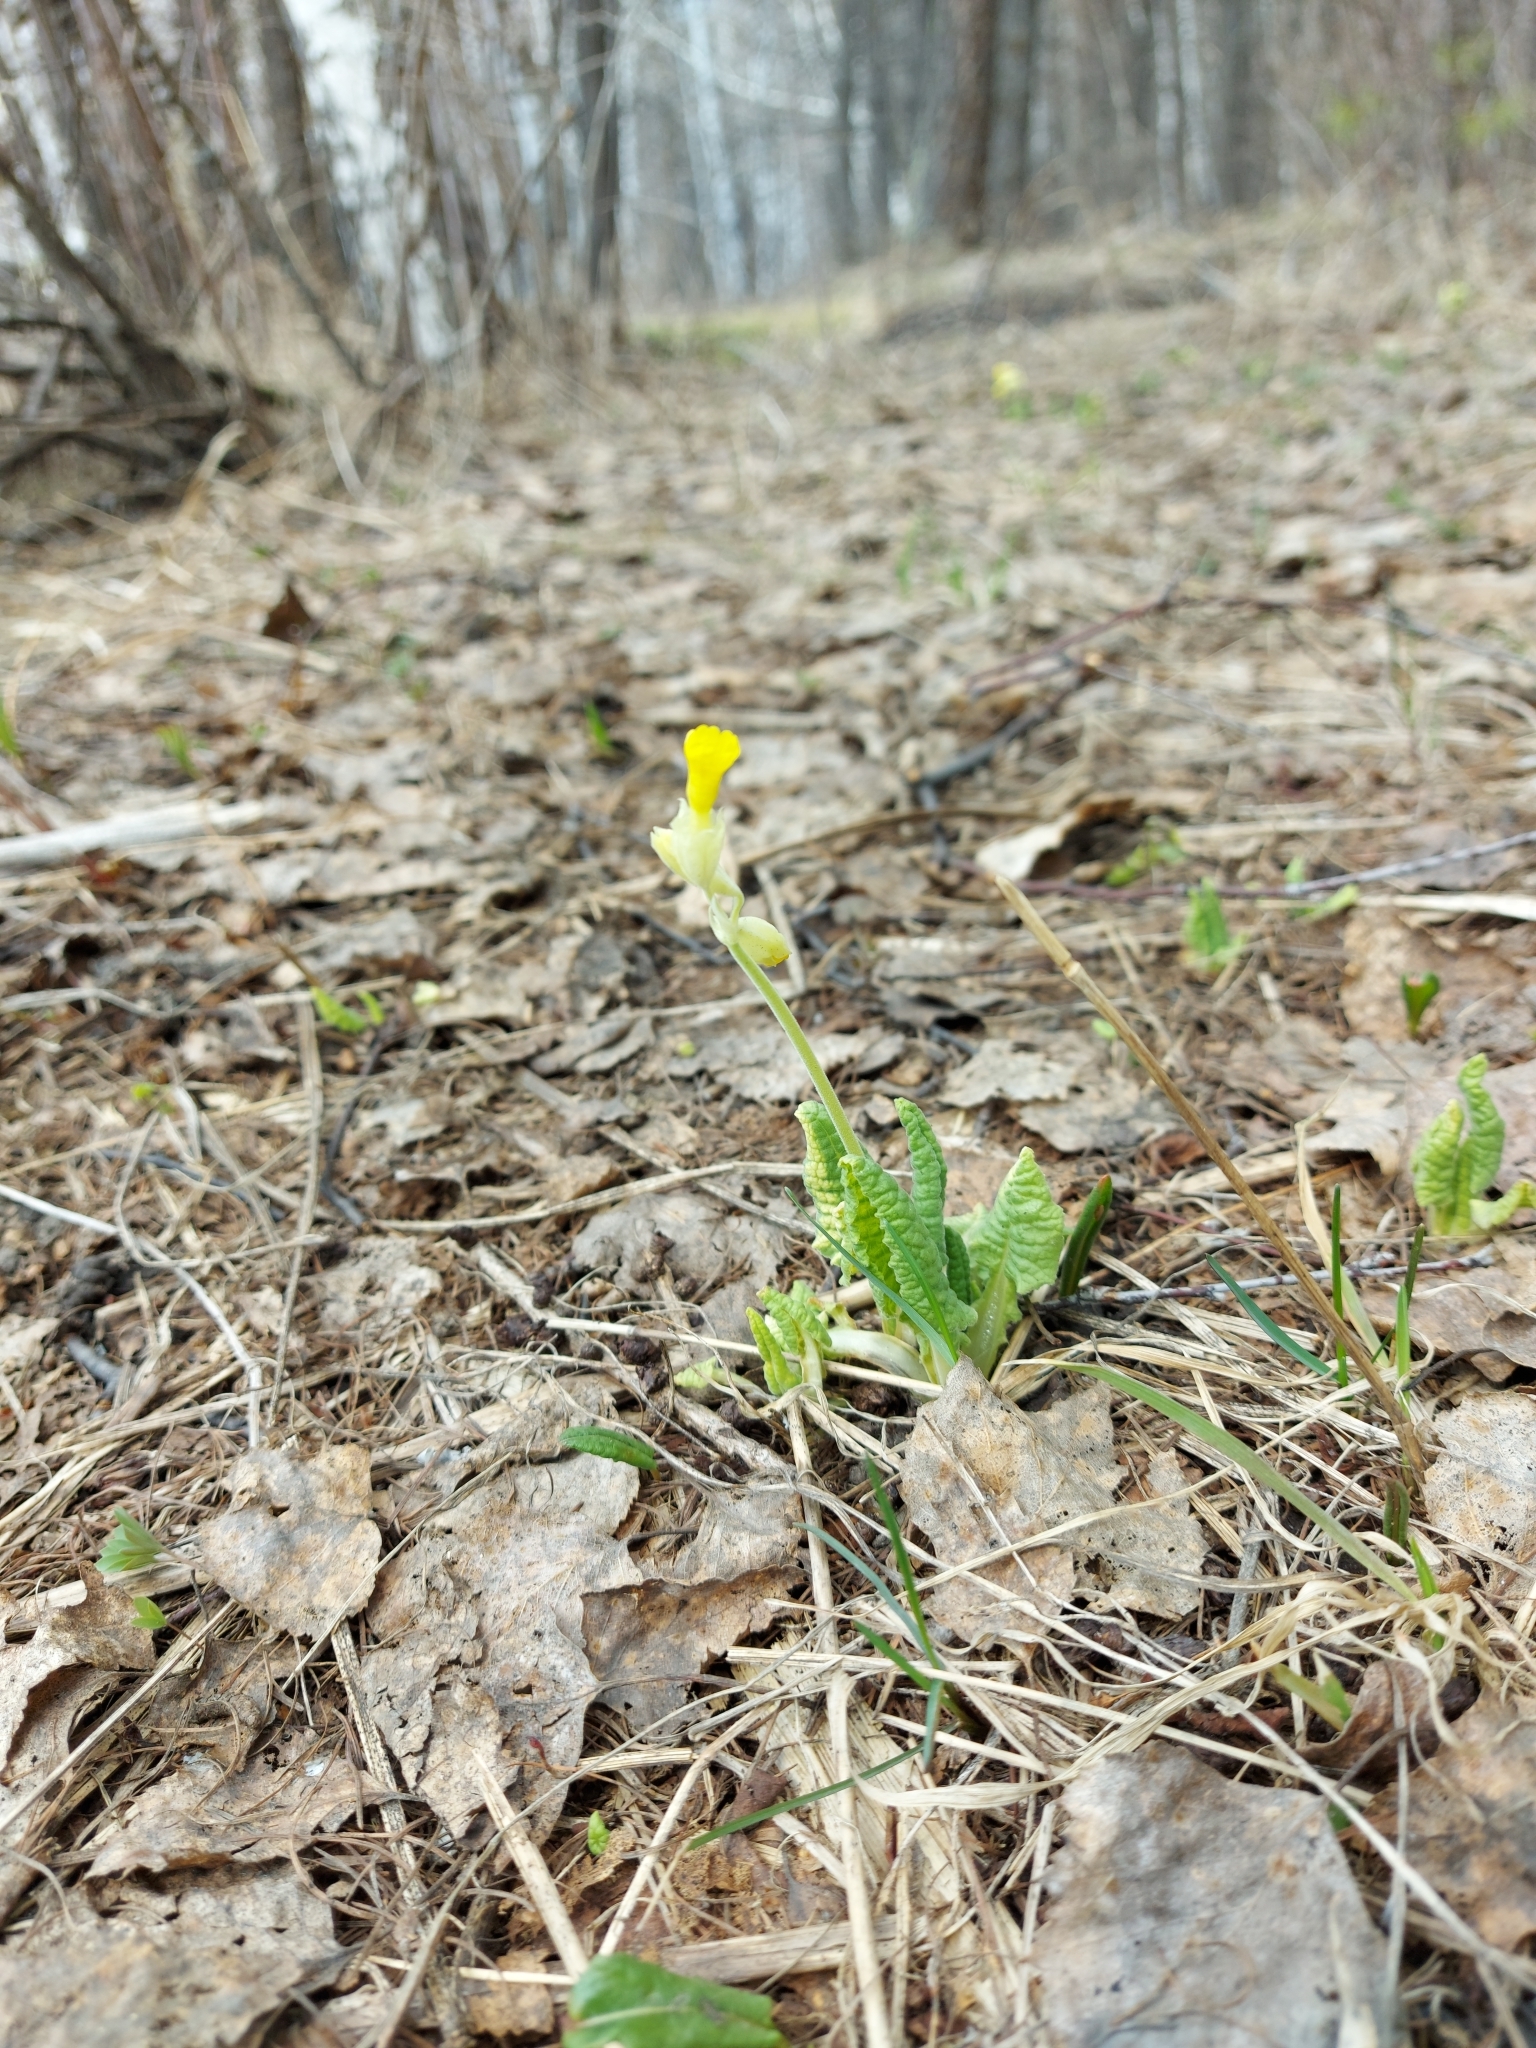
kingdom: Plantae
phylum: Tracheophyta
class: Magnoliopsida
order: Ericales
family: Primulaceae
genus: Primula
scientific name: Primula veris
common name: Cowslip
